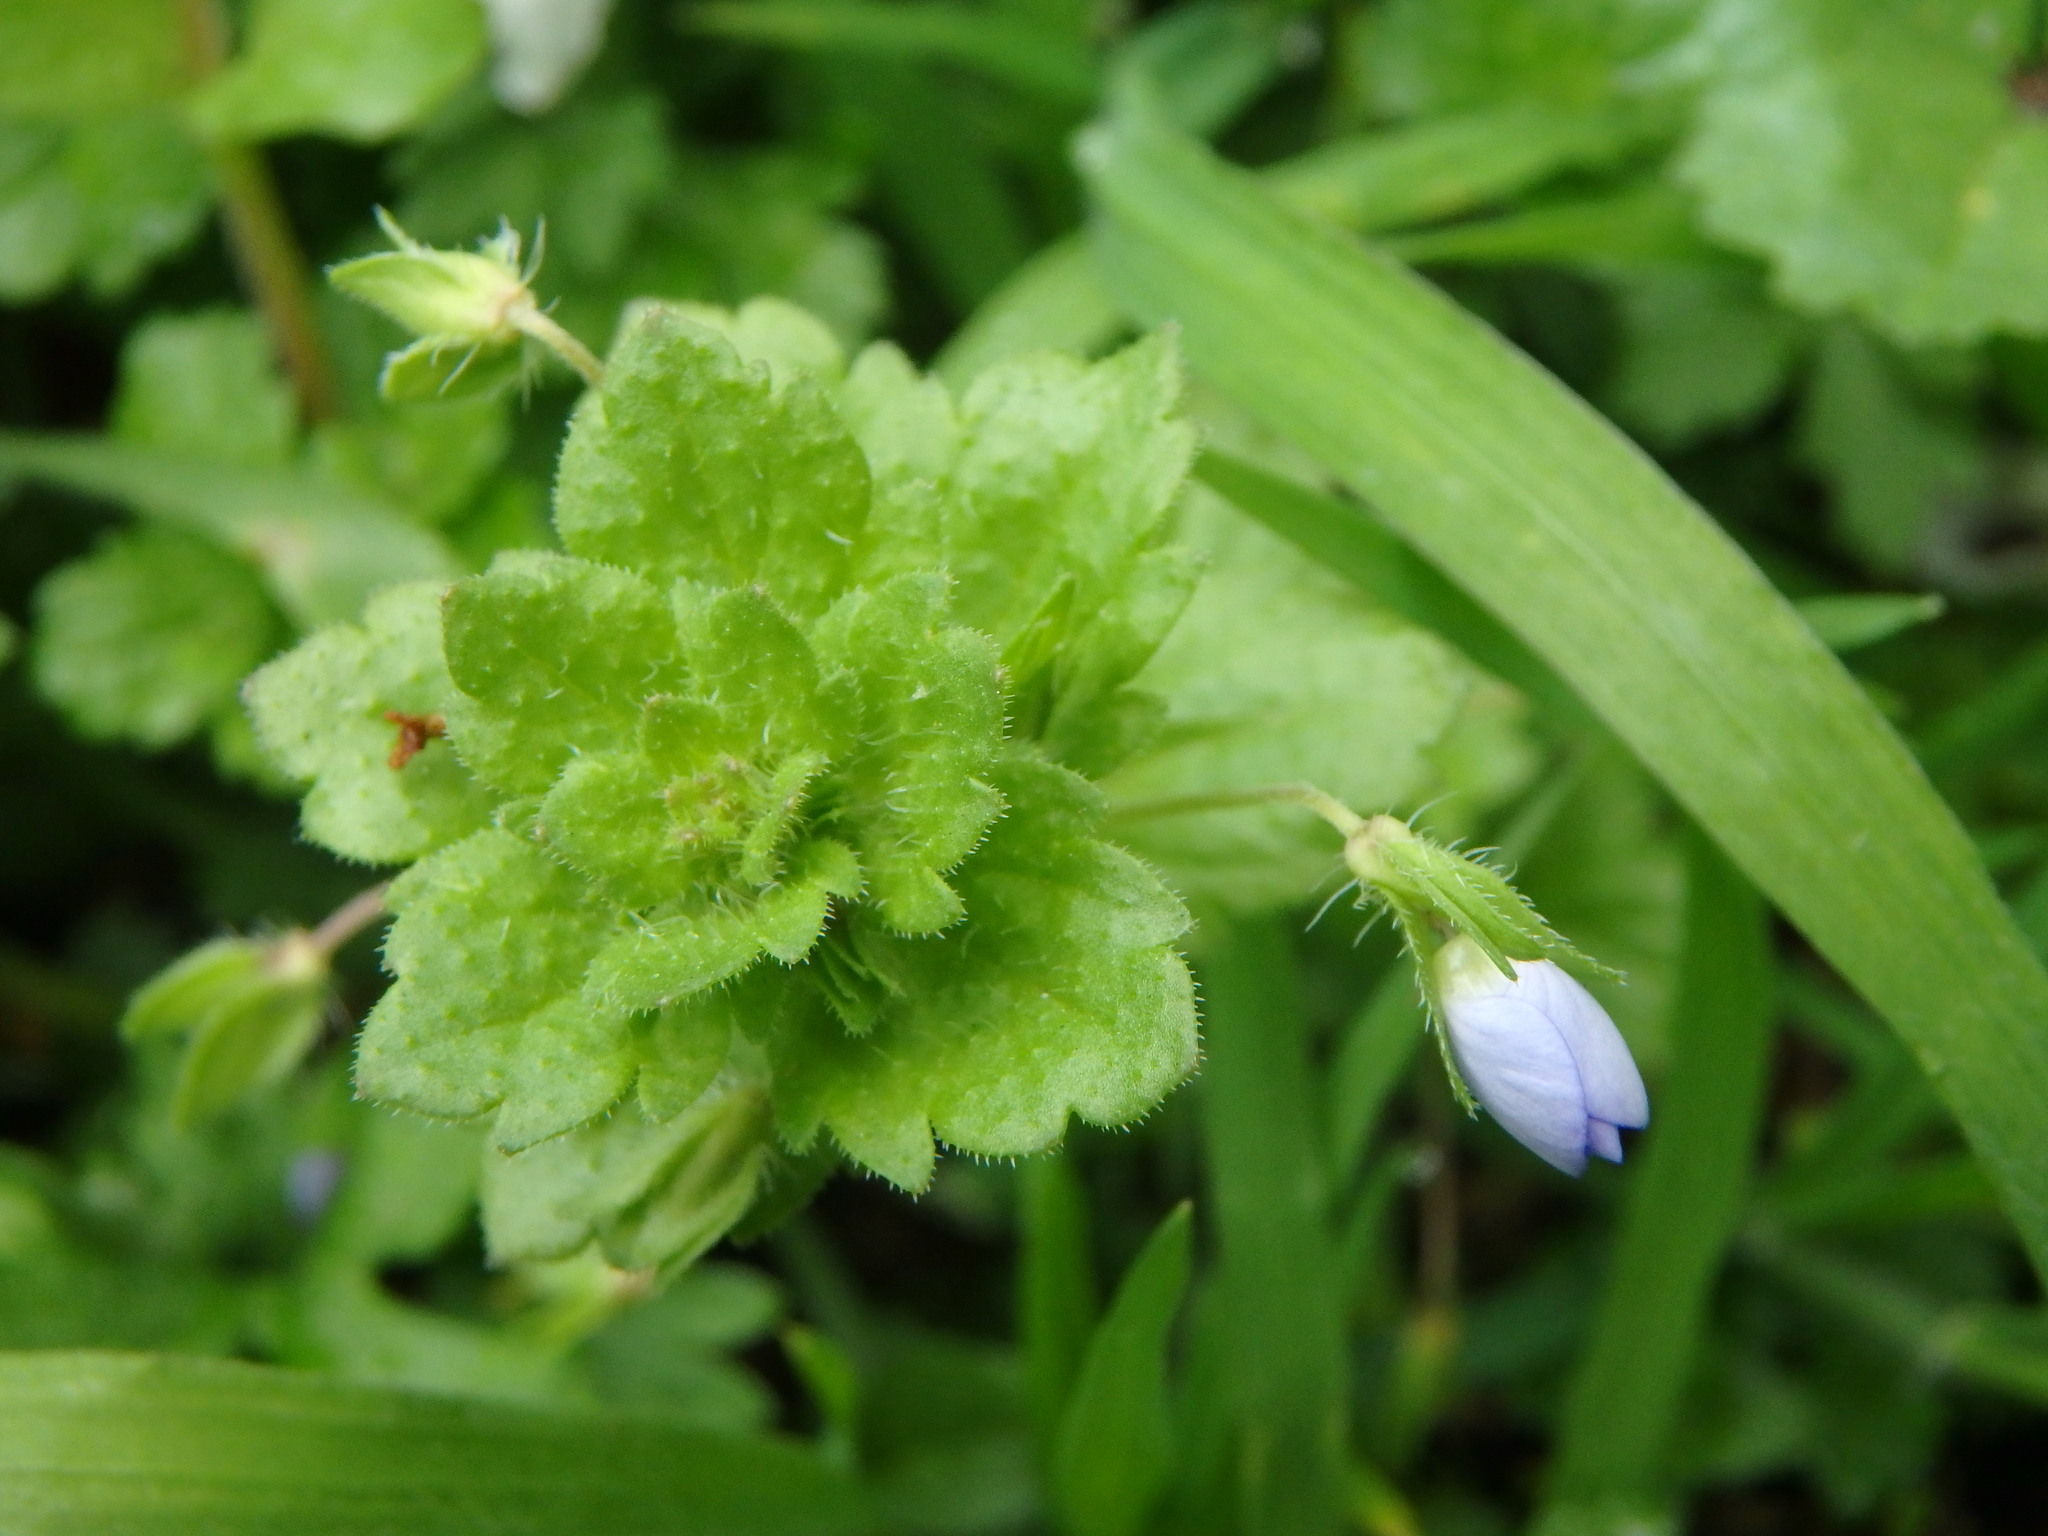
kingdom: Plantae
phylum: Tracheophyta
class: Magnoliopsida
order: Lamiales
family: Plantaginaceae
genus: Veronica
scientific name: Veronica persica
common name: Common field-speedwell
